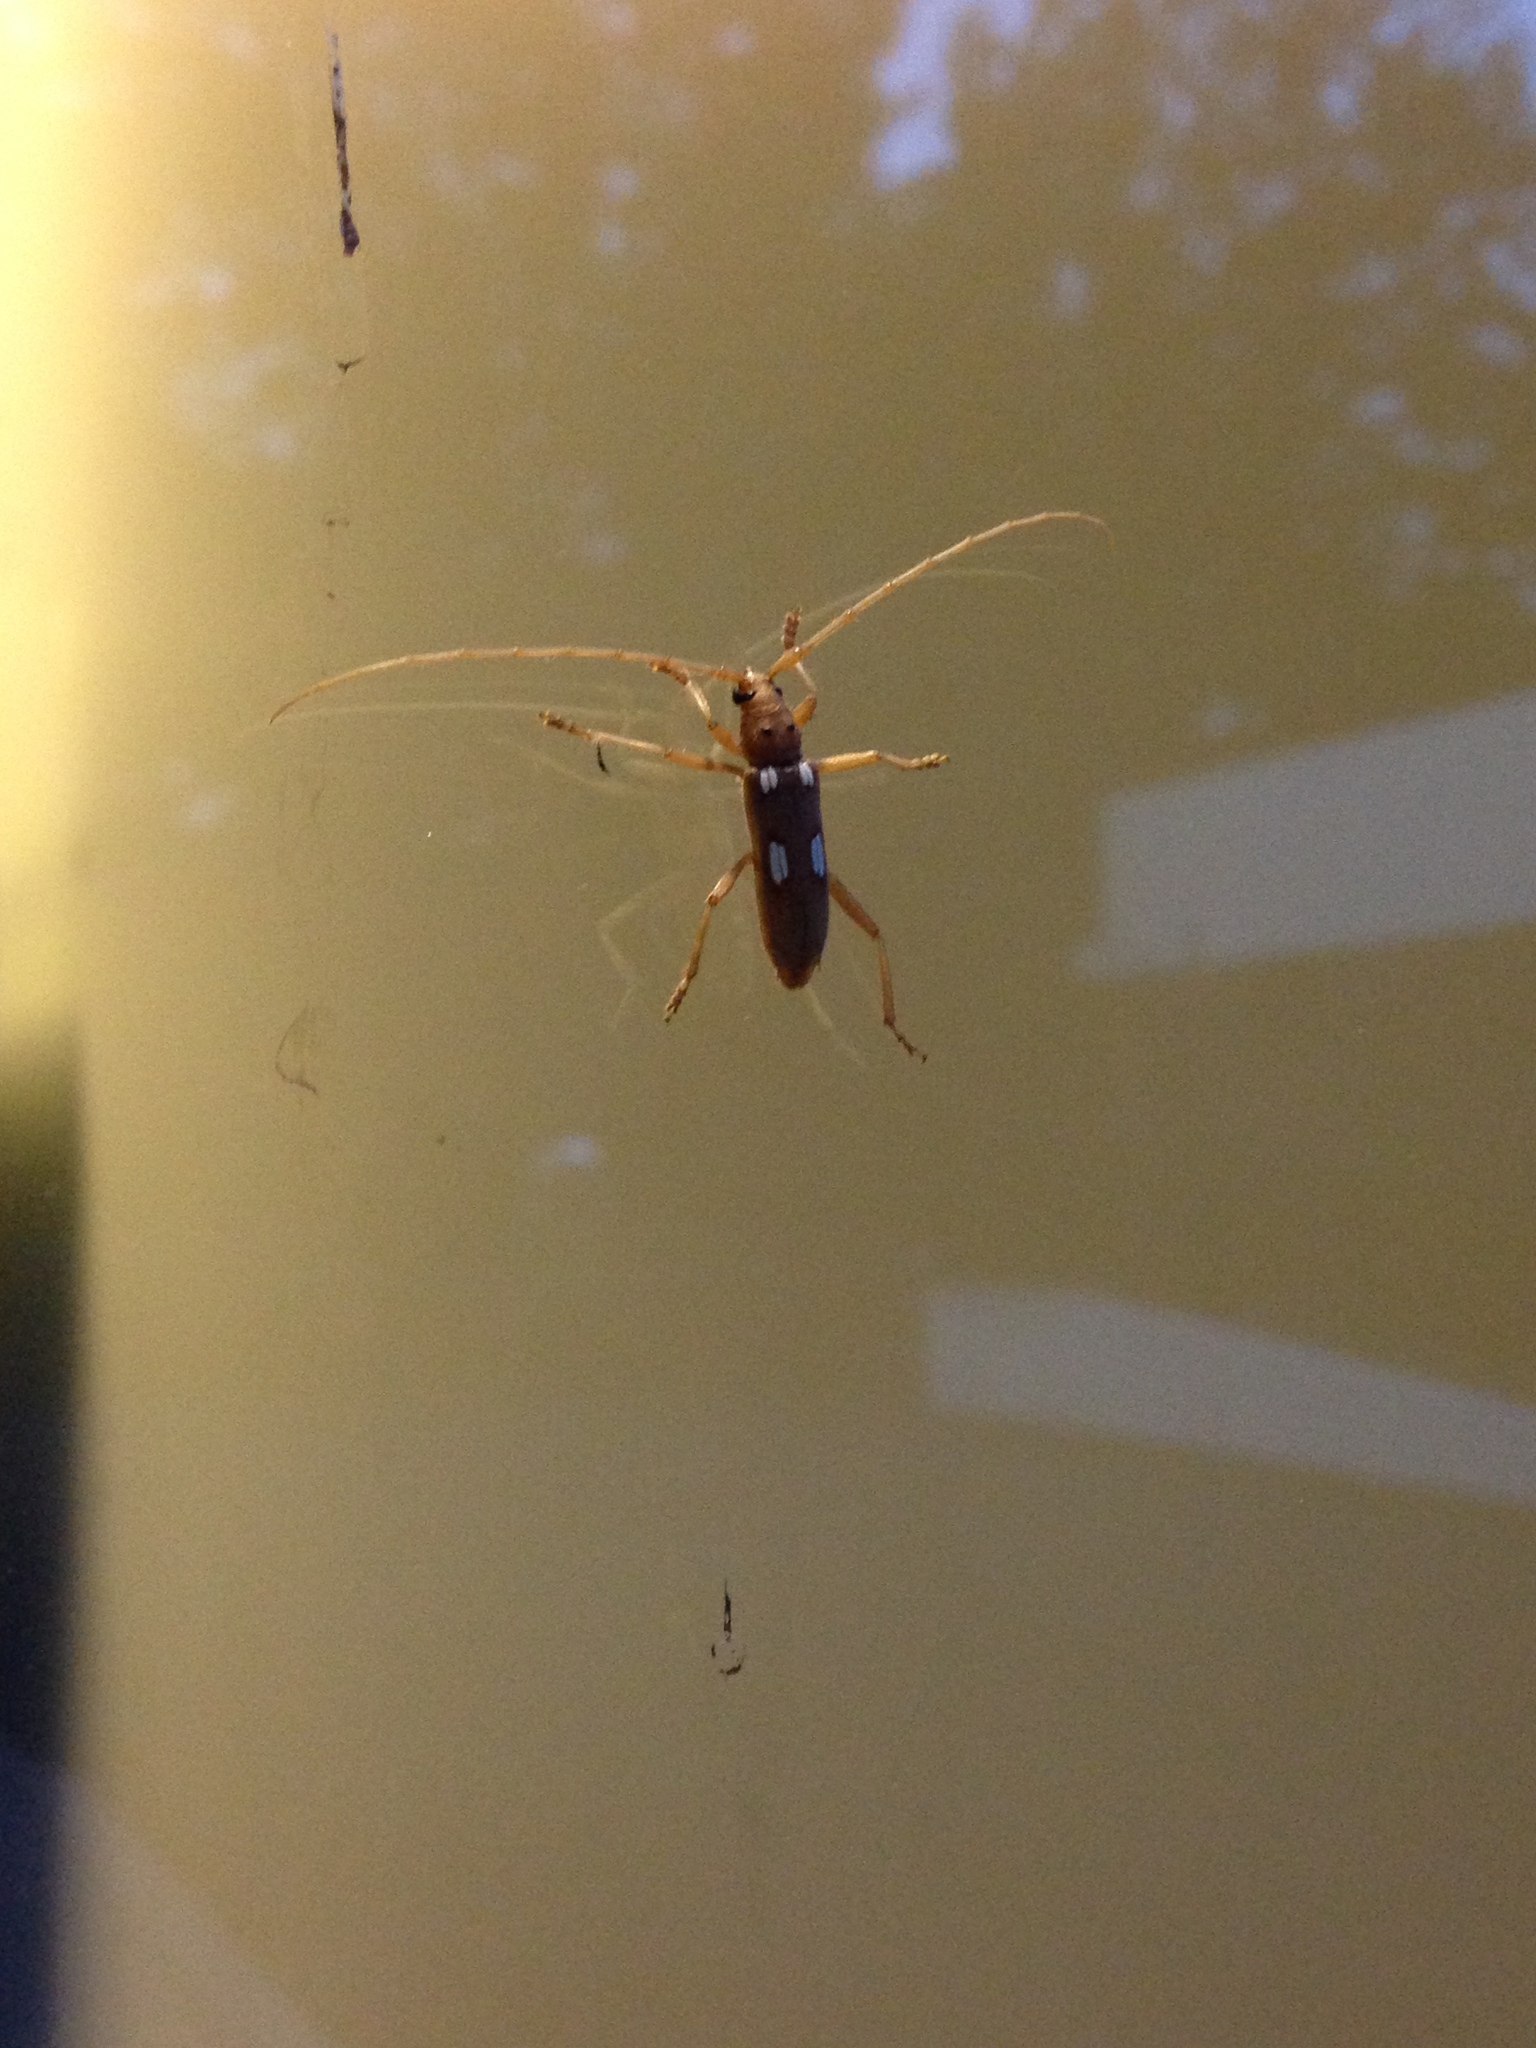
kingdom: Animalia
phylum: Arthropoda
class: Insecta
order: Coleoptera
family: Cerambycidae
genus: Eburia
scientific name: Eburia quadrigeminata
